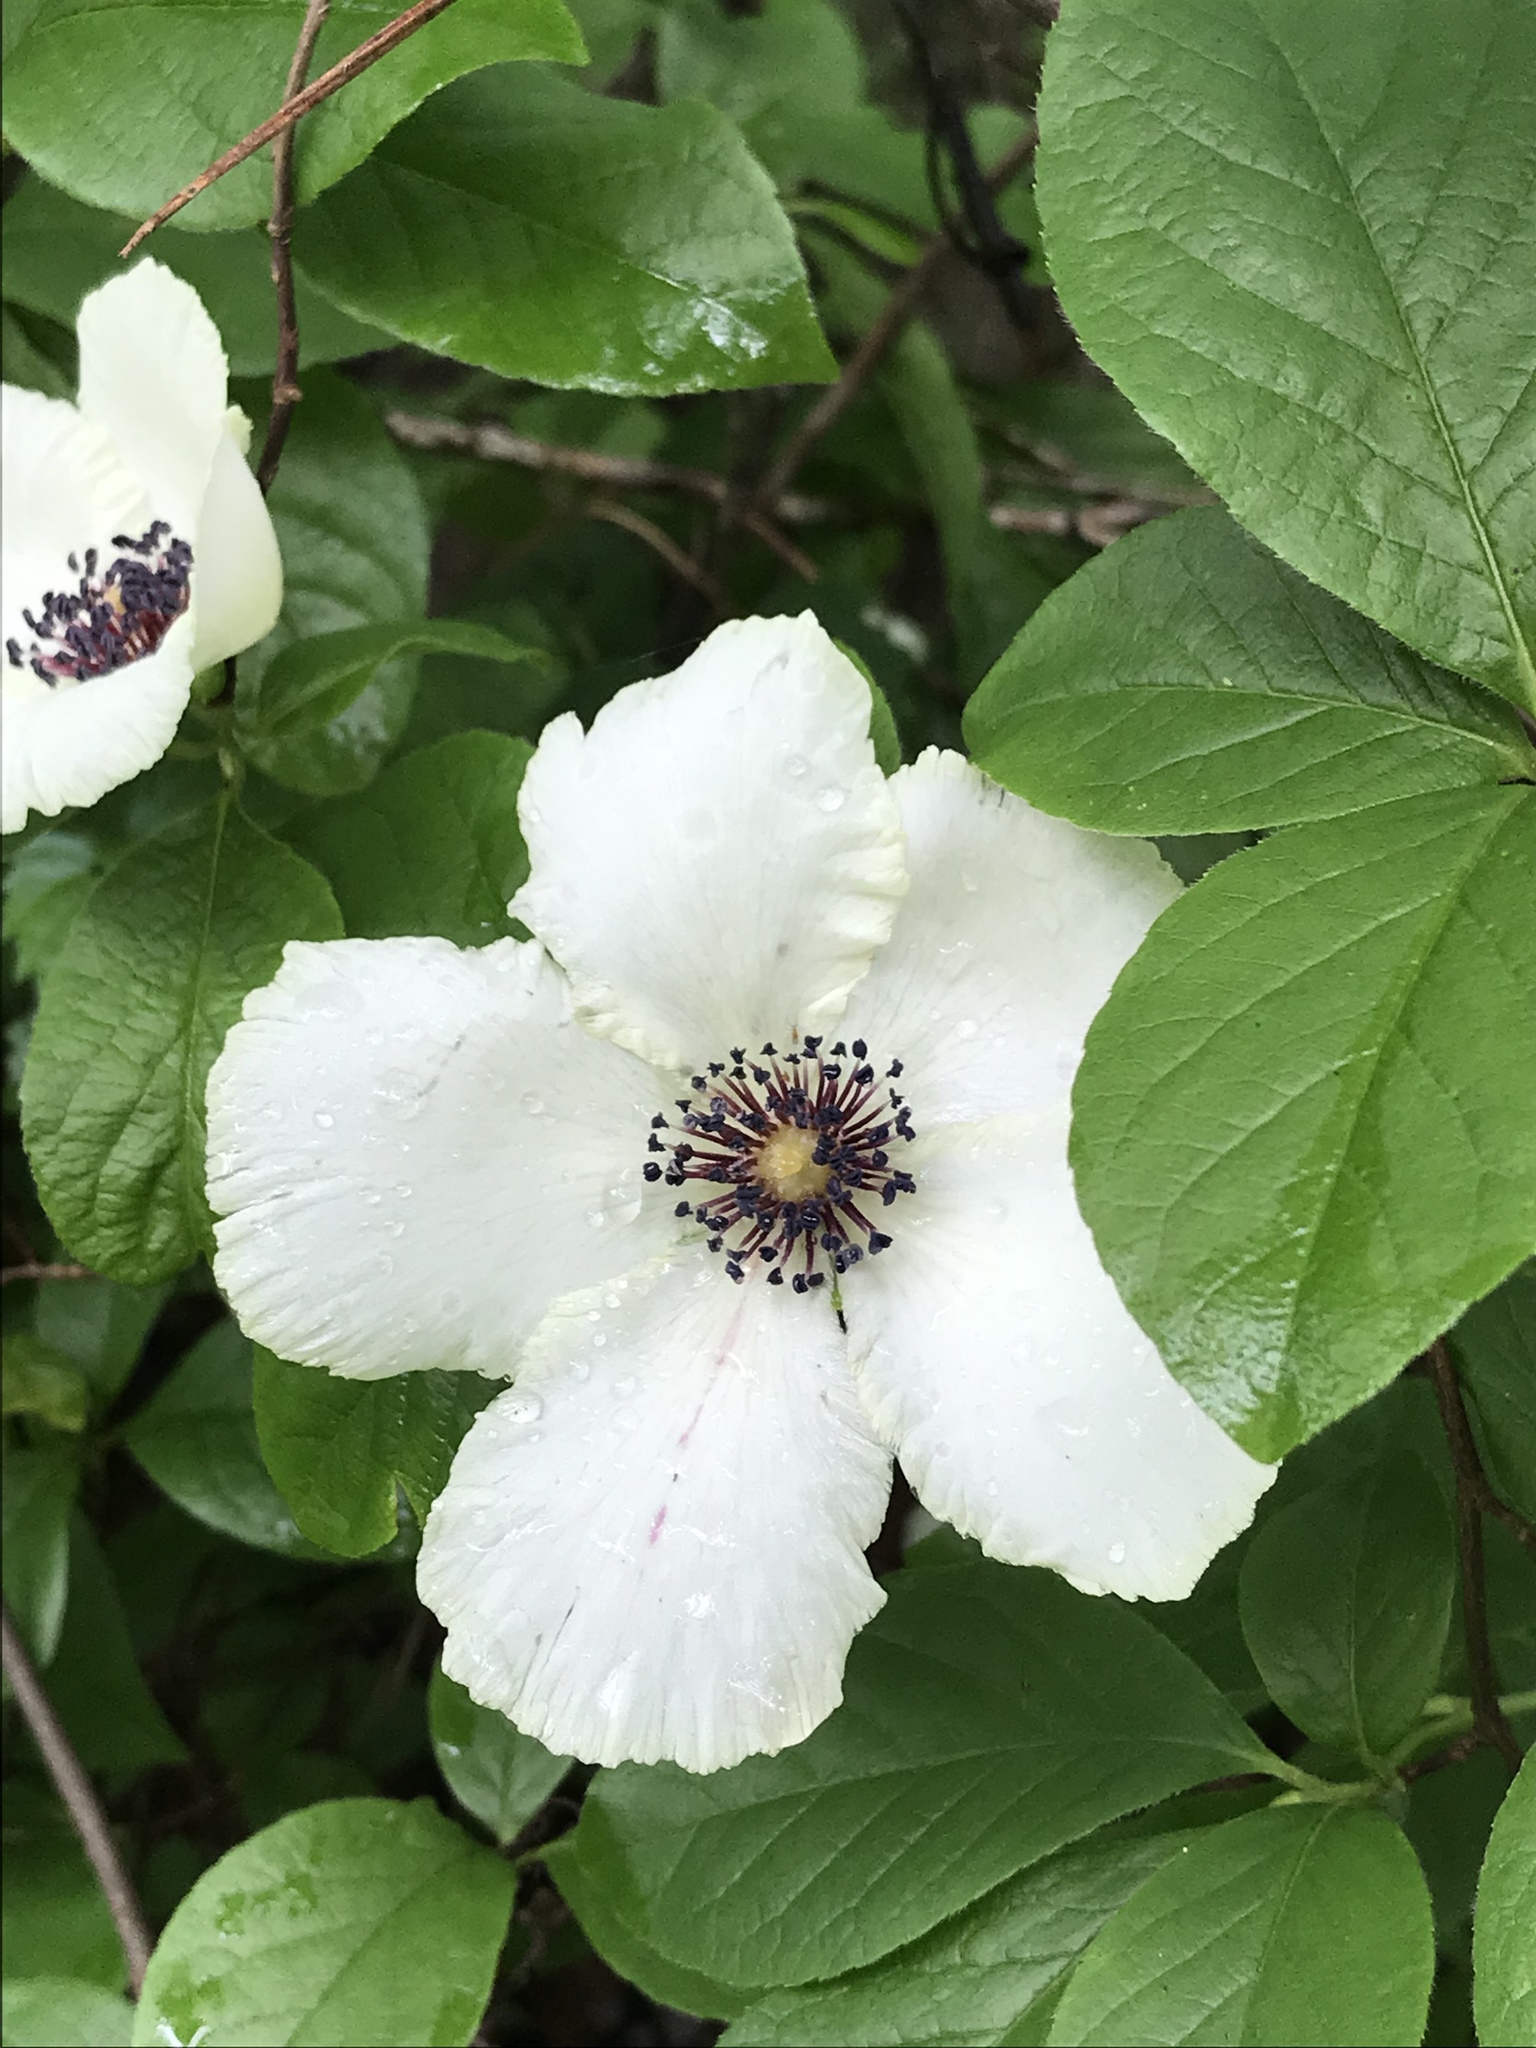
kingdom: Plantae
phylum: Tracheophyta
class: Magnoliopsida
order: Ericales
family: Theaceae
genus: Stewartia
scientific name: Stewartia malacodendron
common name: Virginia stewartia
